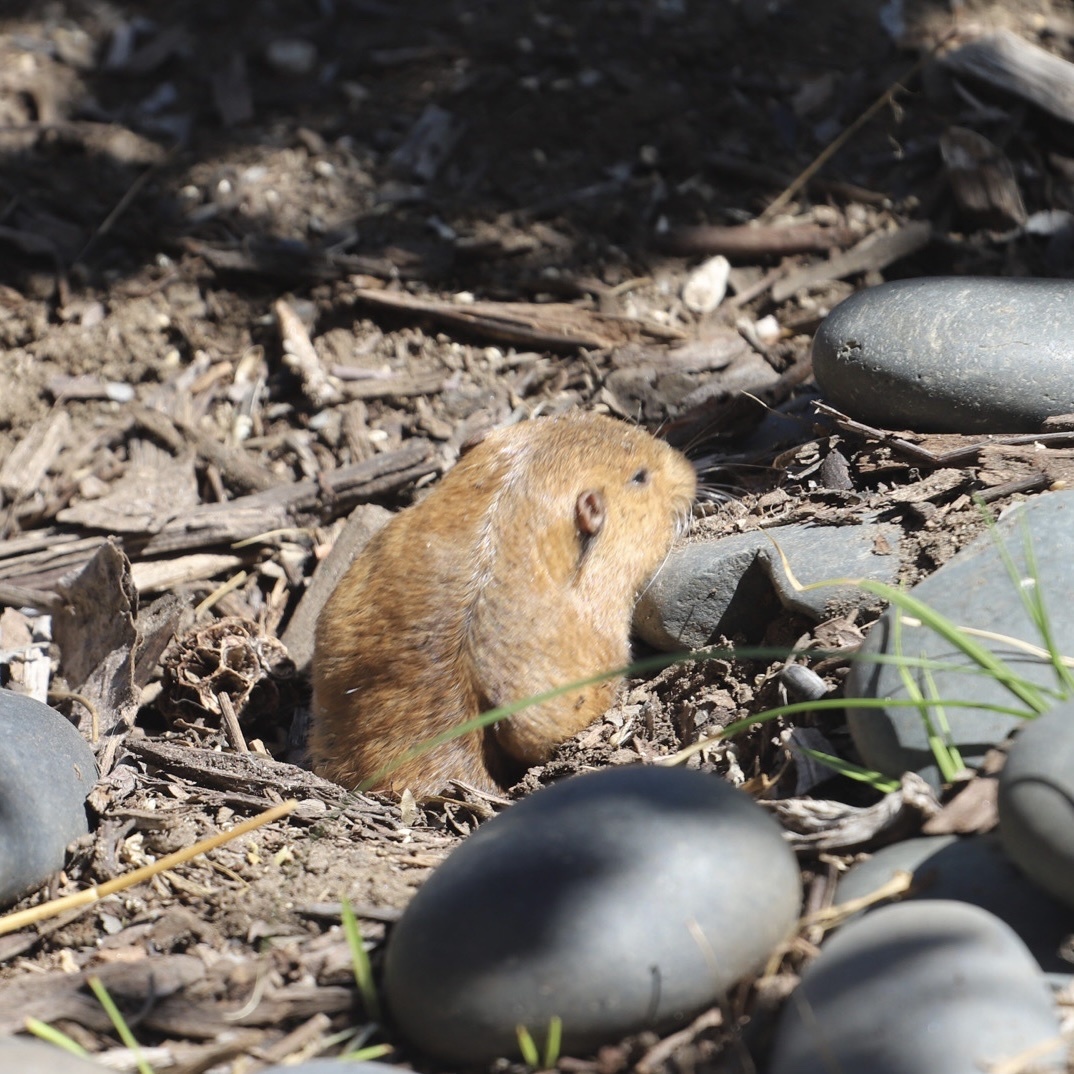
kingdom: Animalia
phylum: Chordata
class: Mammalia
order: Rodentia
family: Geomyidae
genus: Thomomys
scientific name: Thomomys bottae
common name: Botta's pocket gopher
